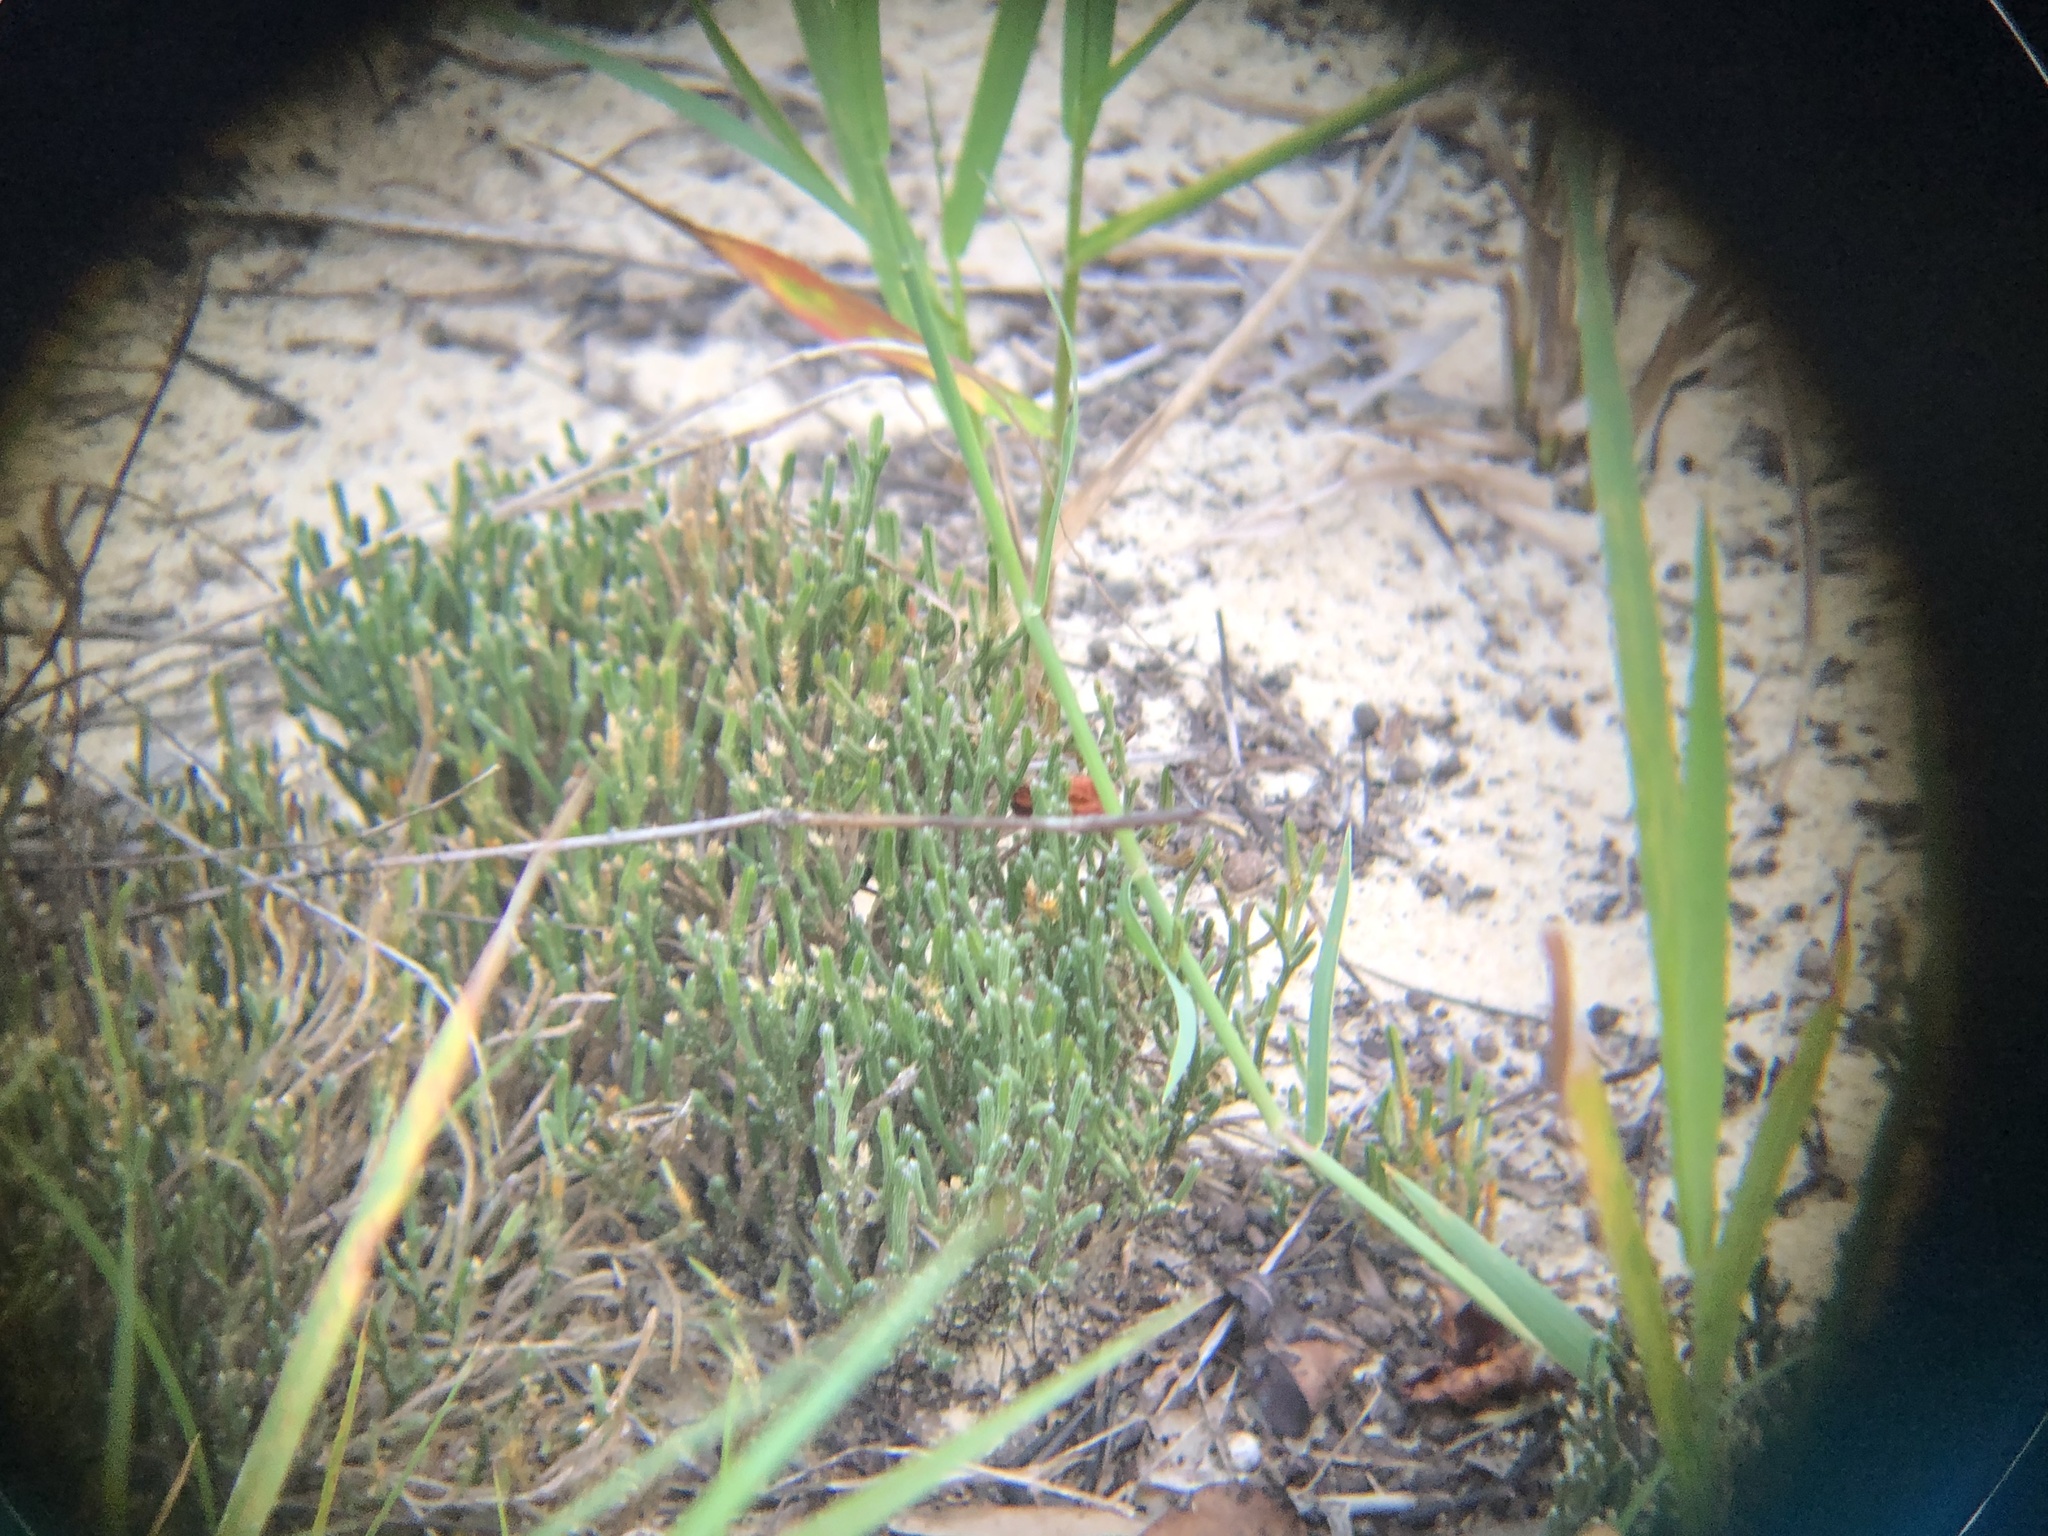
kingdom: Plantae
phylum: Tracheophyta
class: Lycopodiopsida
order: Selaginellales
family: Selaginellaceae
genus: Selaginella
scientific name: Selaginella arenicola
